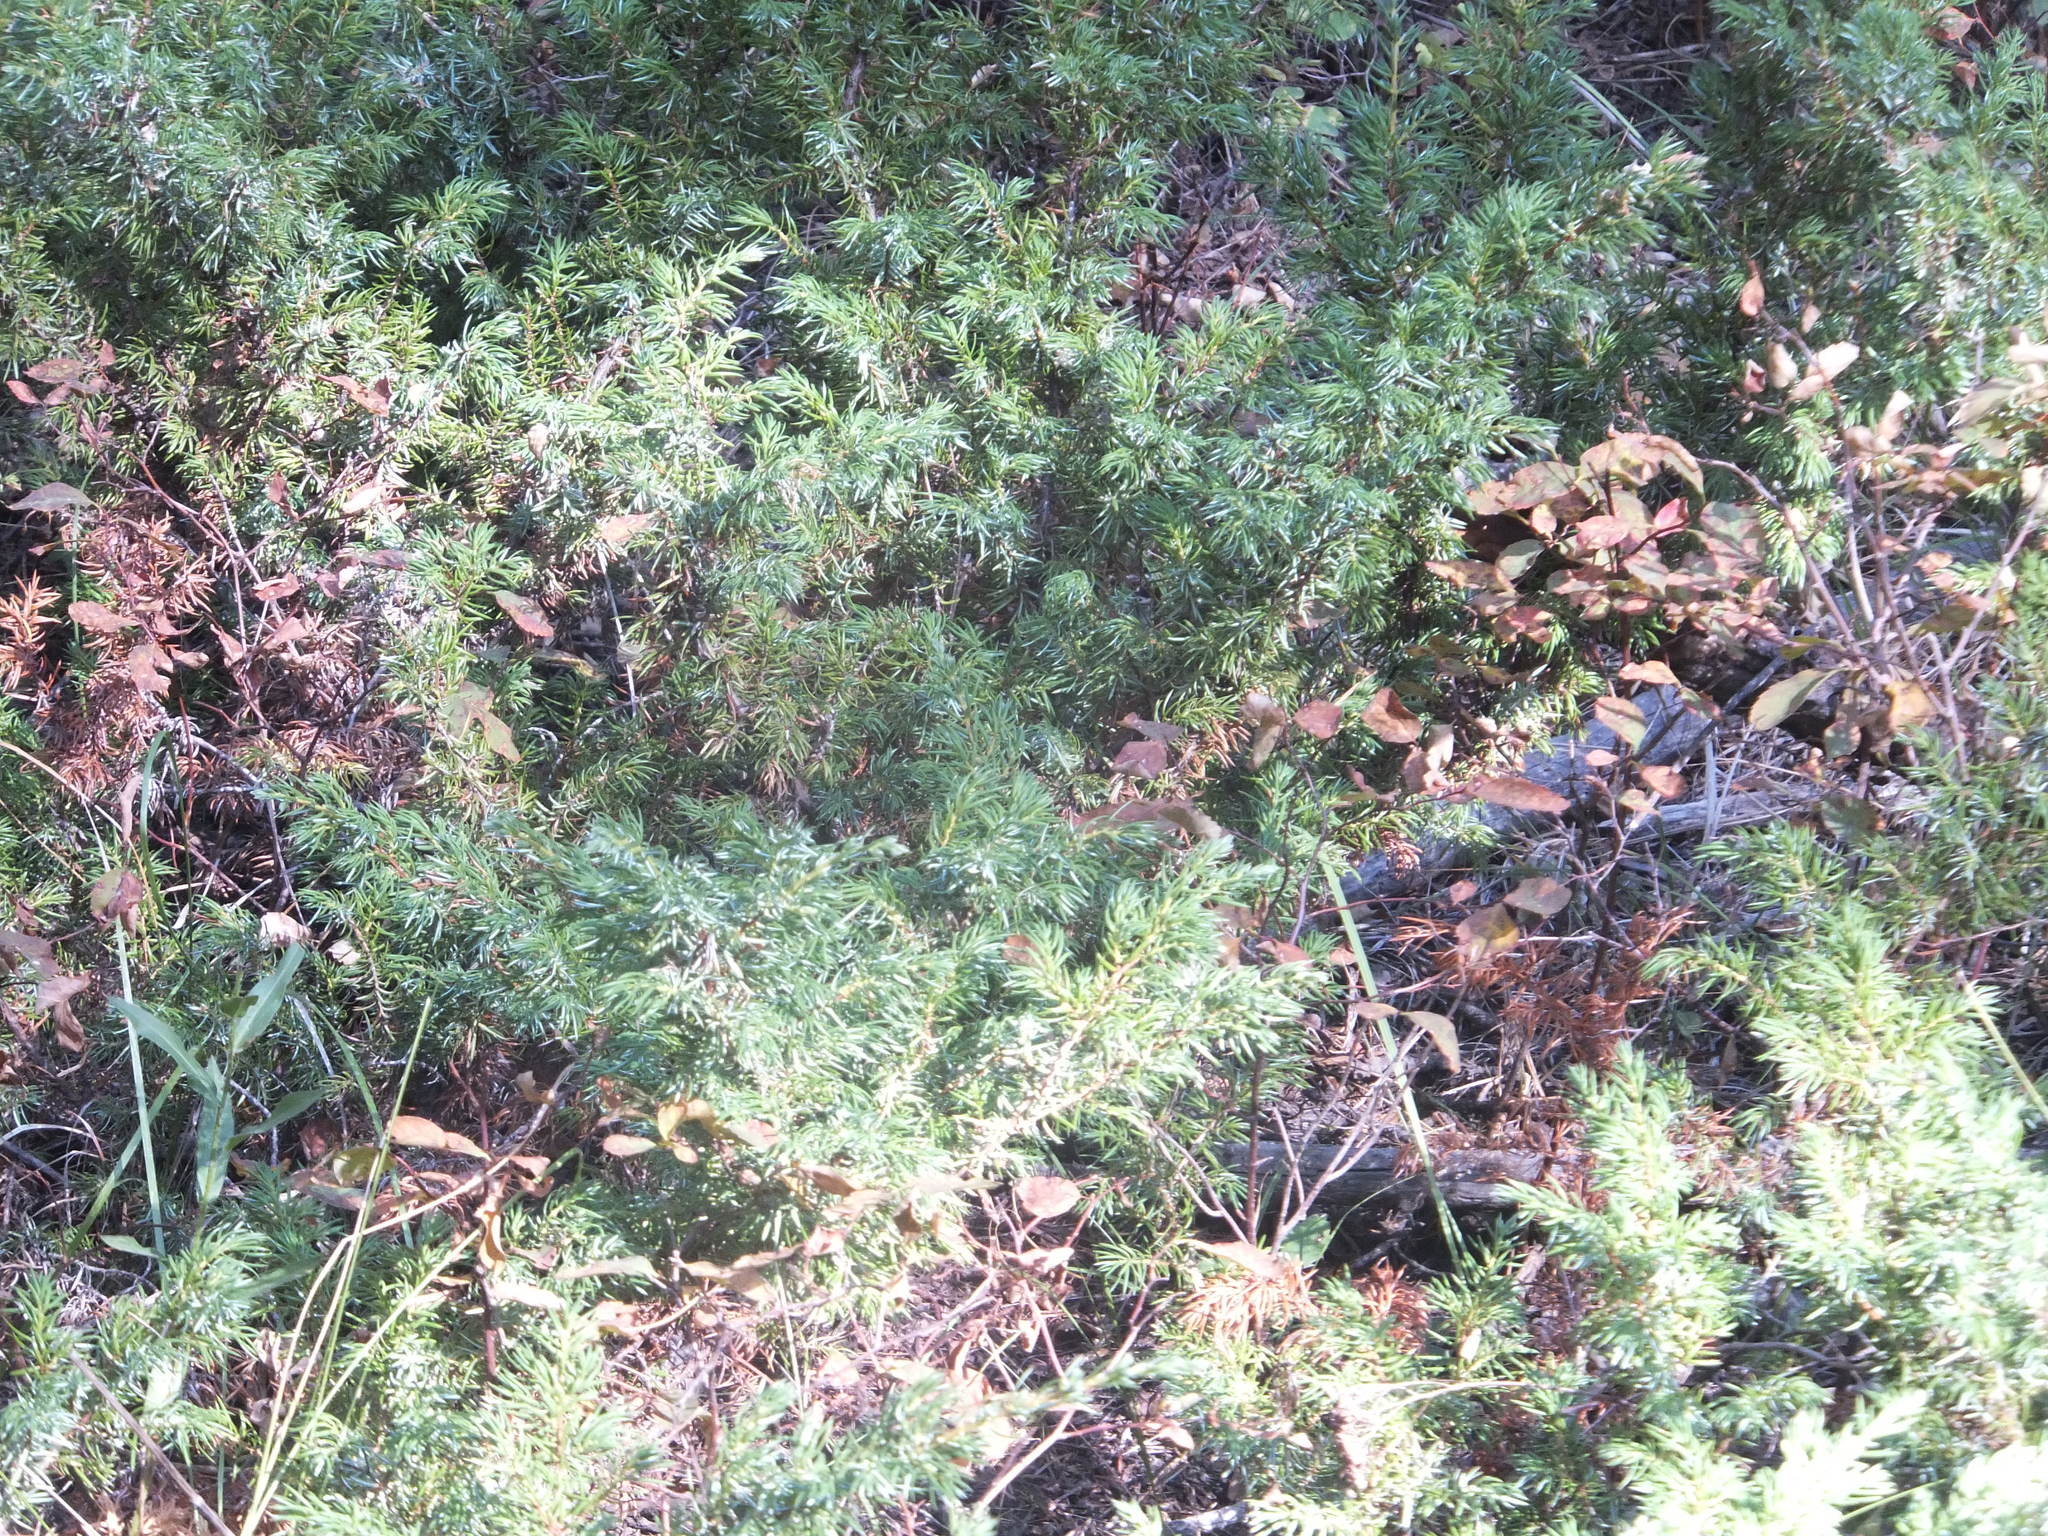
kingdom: Plantae
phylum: Tracheophyta
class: Pinopsida
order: Pinales
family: Cupressaceae
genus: Juniperus
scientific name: Juniperus communis
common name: Common juniper
